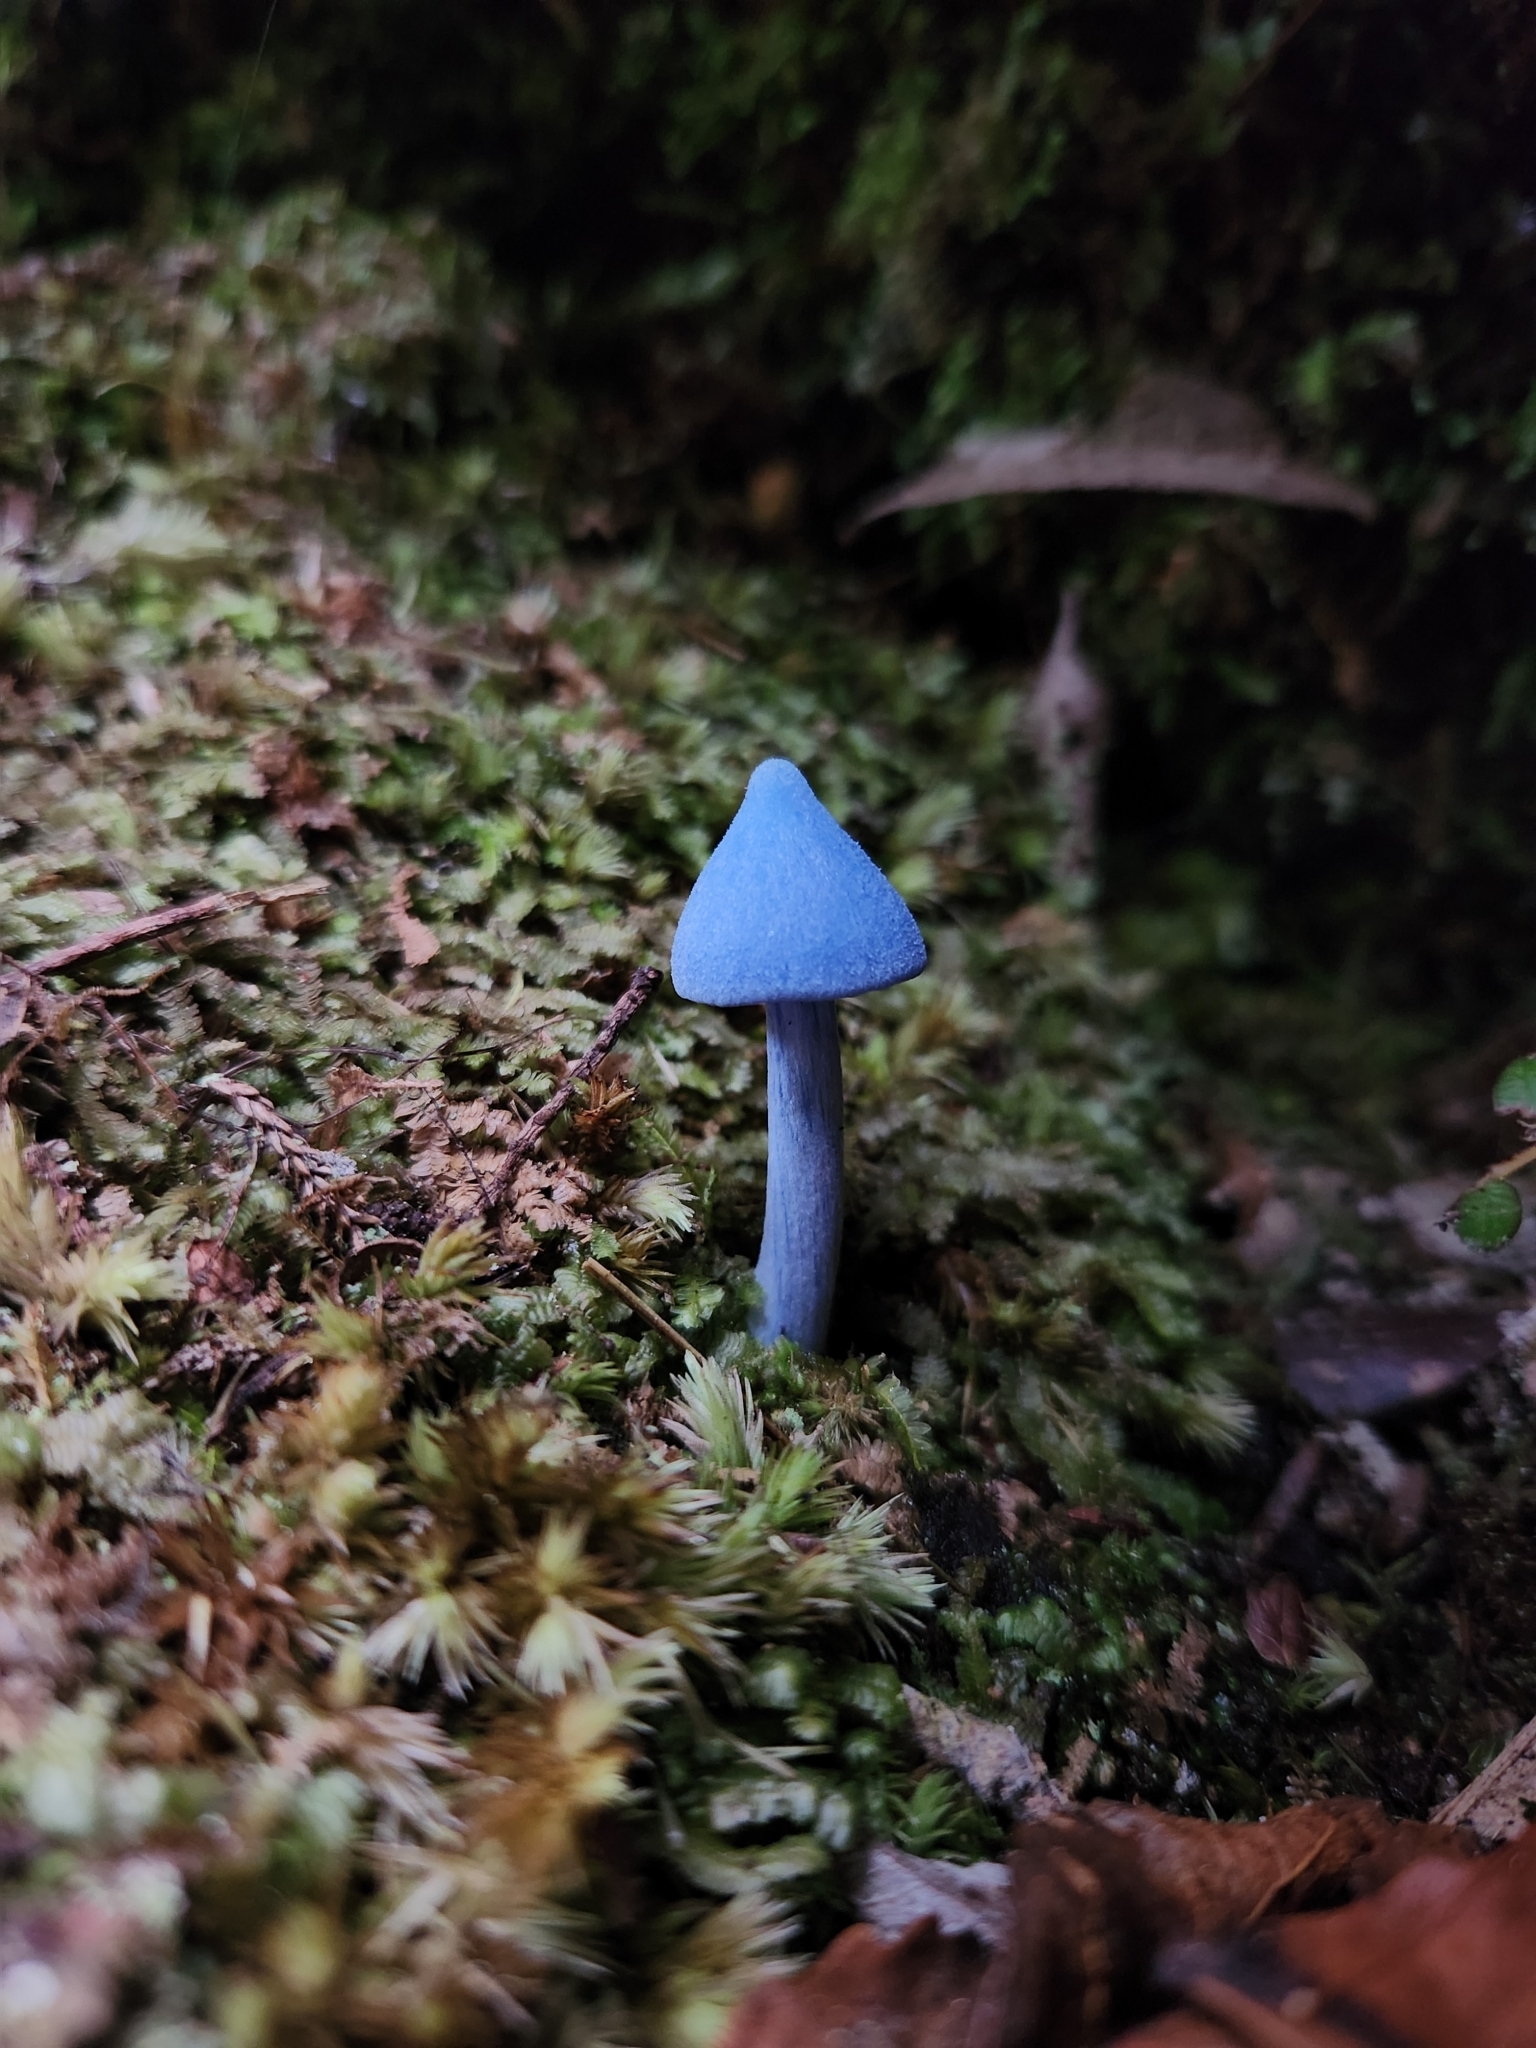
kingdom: Fungi
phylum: Basidiomycota
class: Agaricomycetes
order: Agaricales
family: Entolomataceae
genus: Entoloma
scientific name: Entoloma hochstetteri
